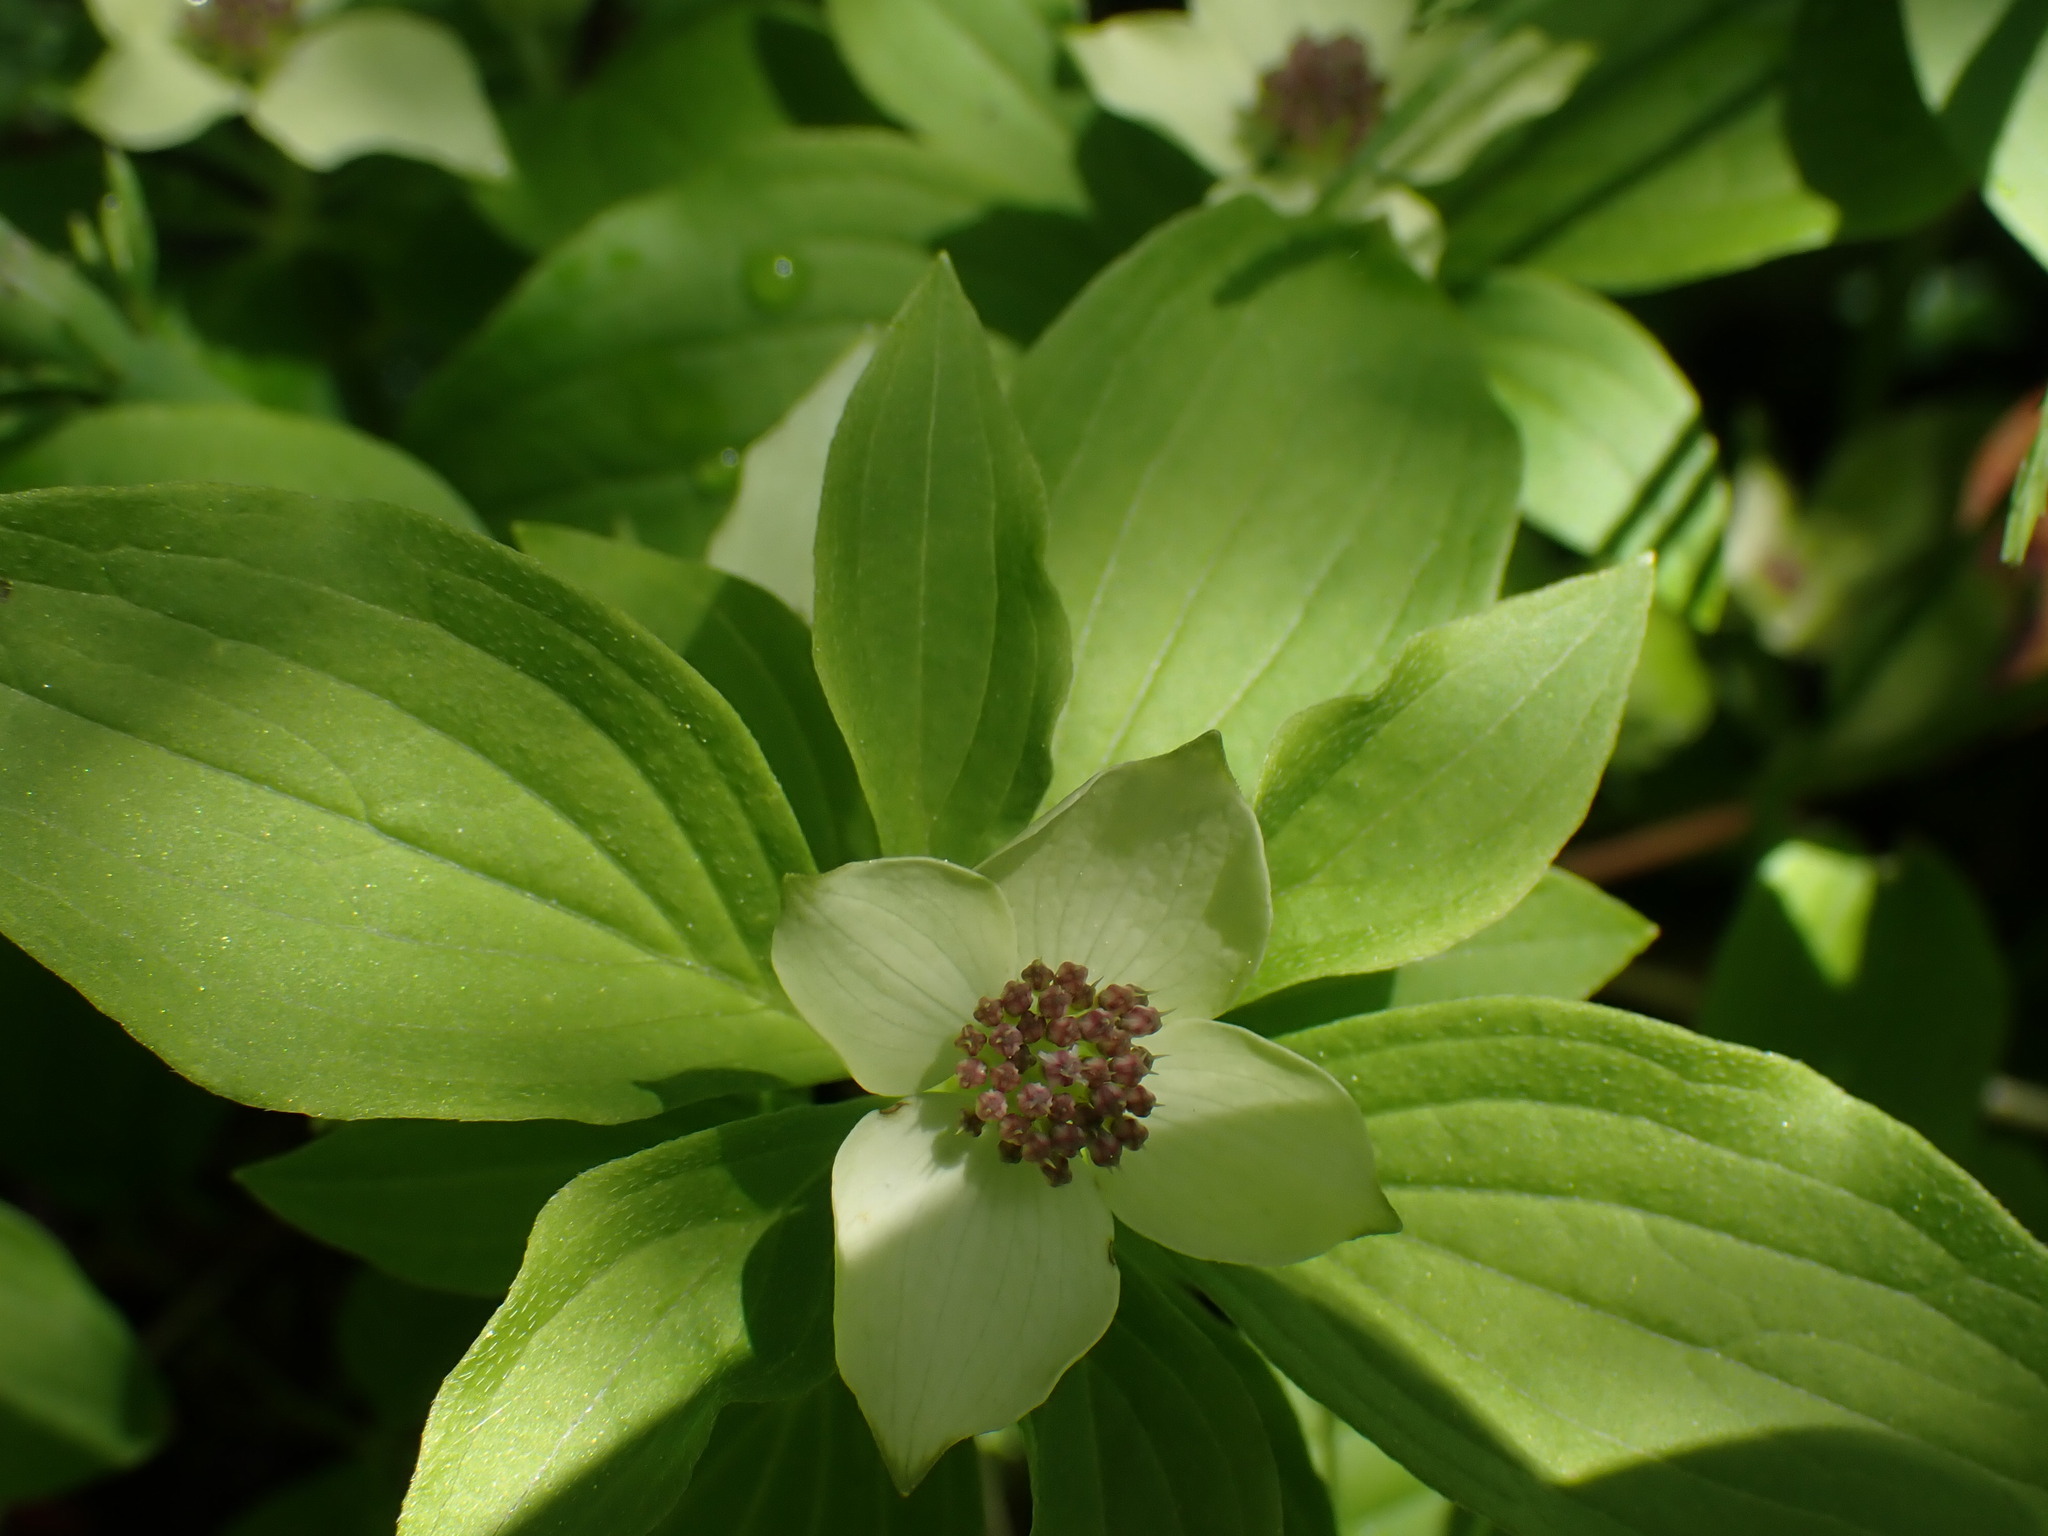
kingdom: Plantae
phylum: Tracheophyta
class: Magnoliopsida
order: Cornales
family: Cornaceae
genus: Cornus
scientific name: Cornus unalaschkensis
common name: Alaska bunchberry
